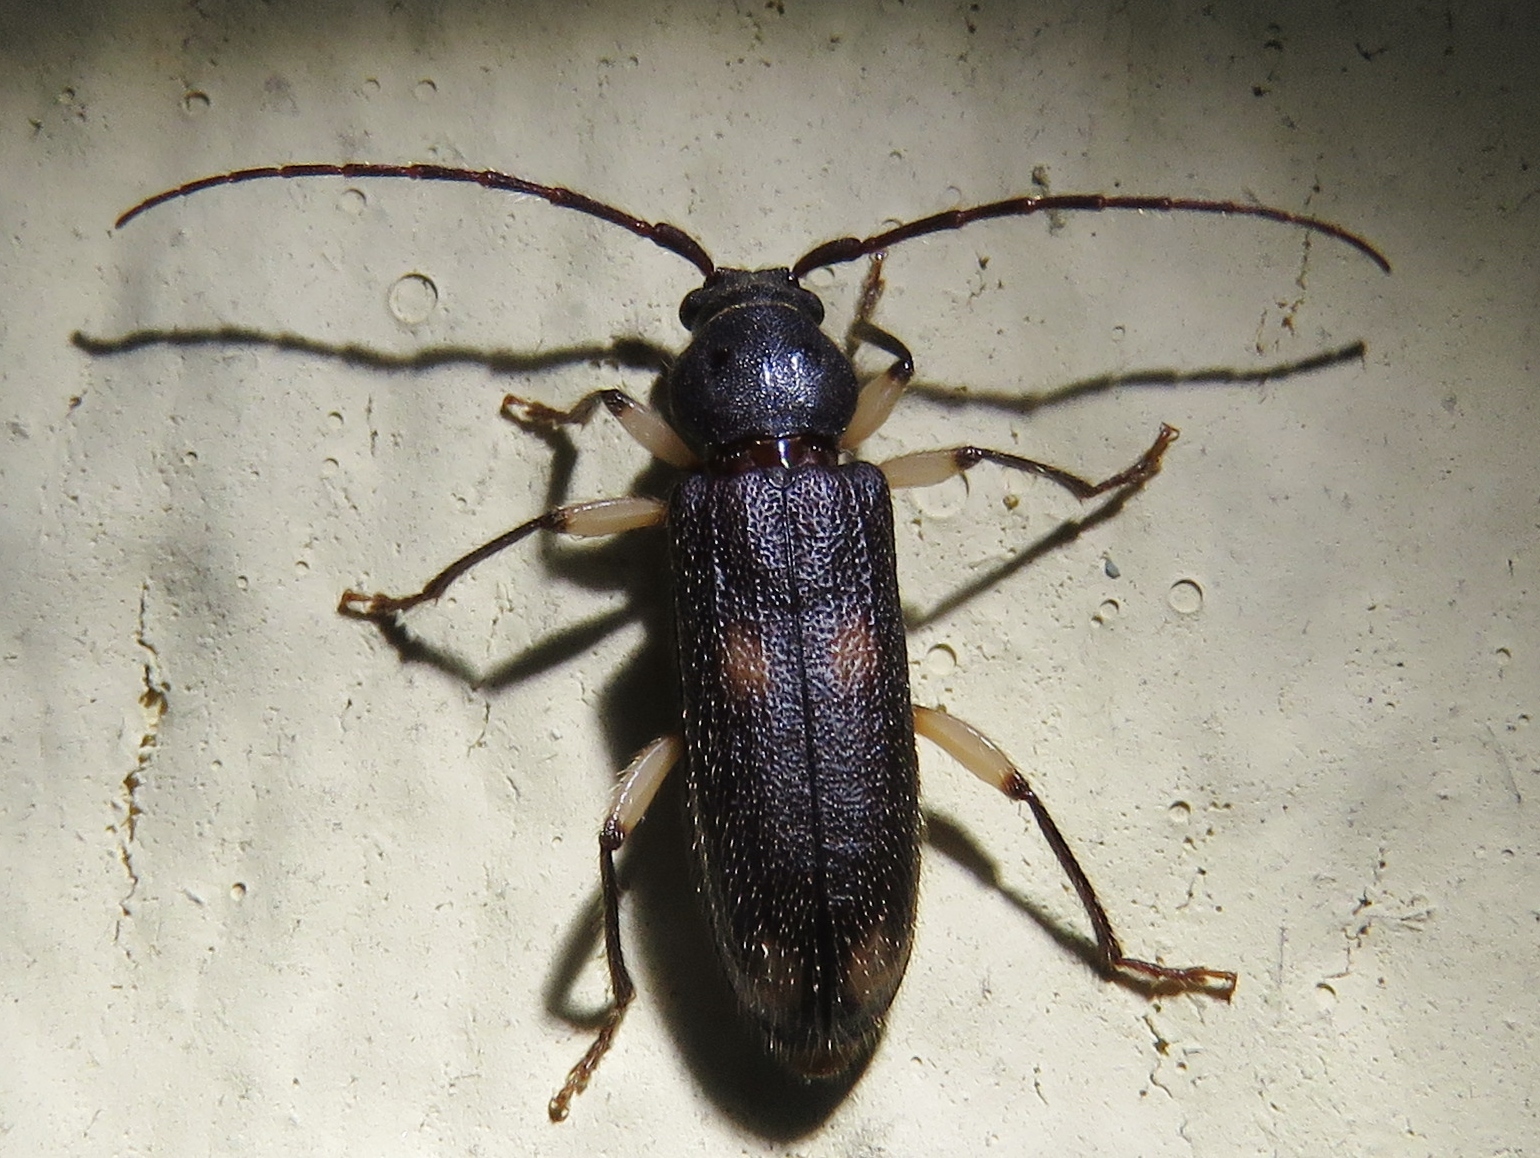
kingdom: Animalia
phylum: Arthropoda
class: Insecta
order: Coleoptera
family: Cerambycidae
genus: Tylonotus
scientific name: Tylonotus bimaculatus
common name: Ash and privet borer
